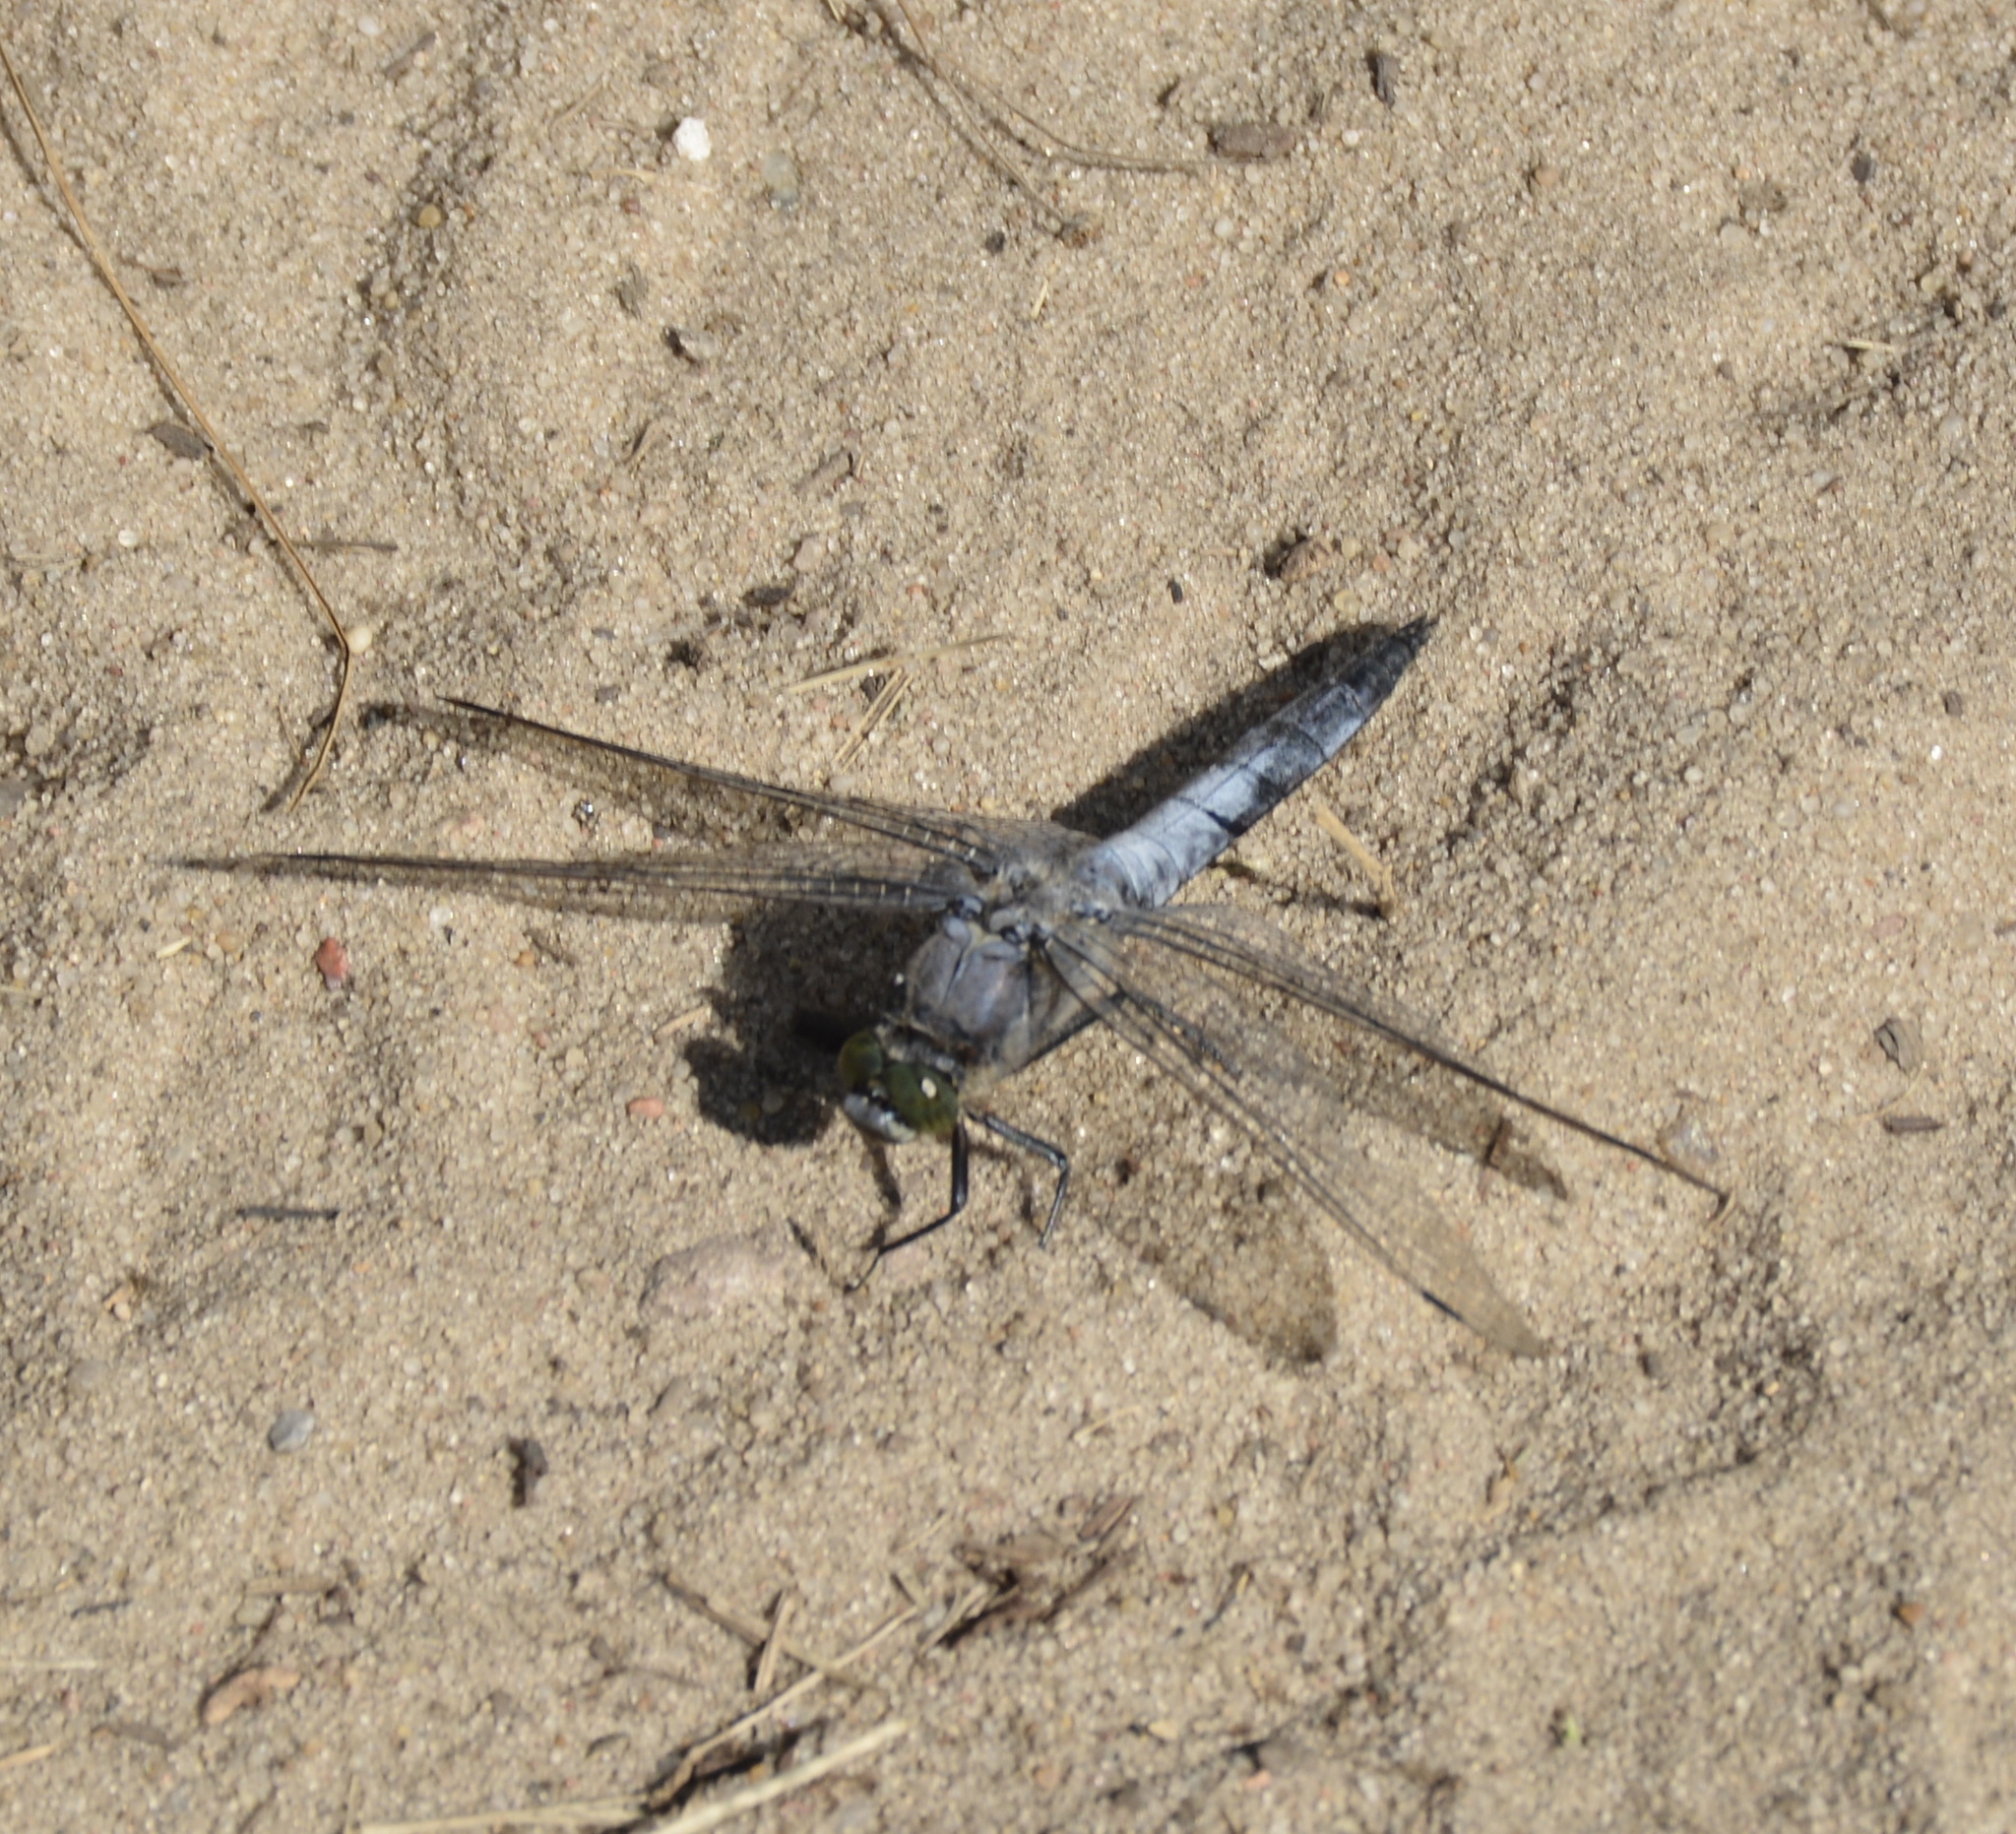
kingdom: Animalia
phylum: Arthropoda
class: Insecta
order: Odonata
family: Libellulidae
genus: Orthetrum
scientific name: Orthetrum cancellatum
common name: Black-tailed skimmer
